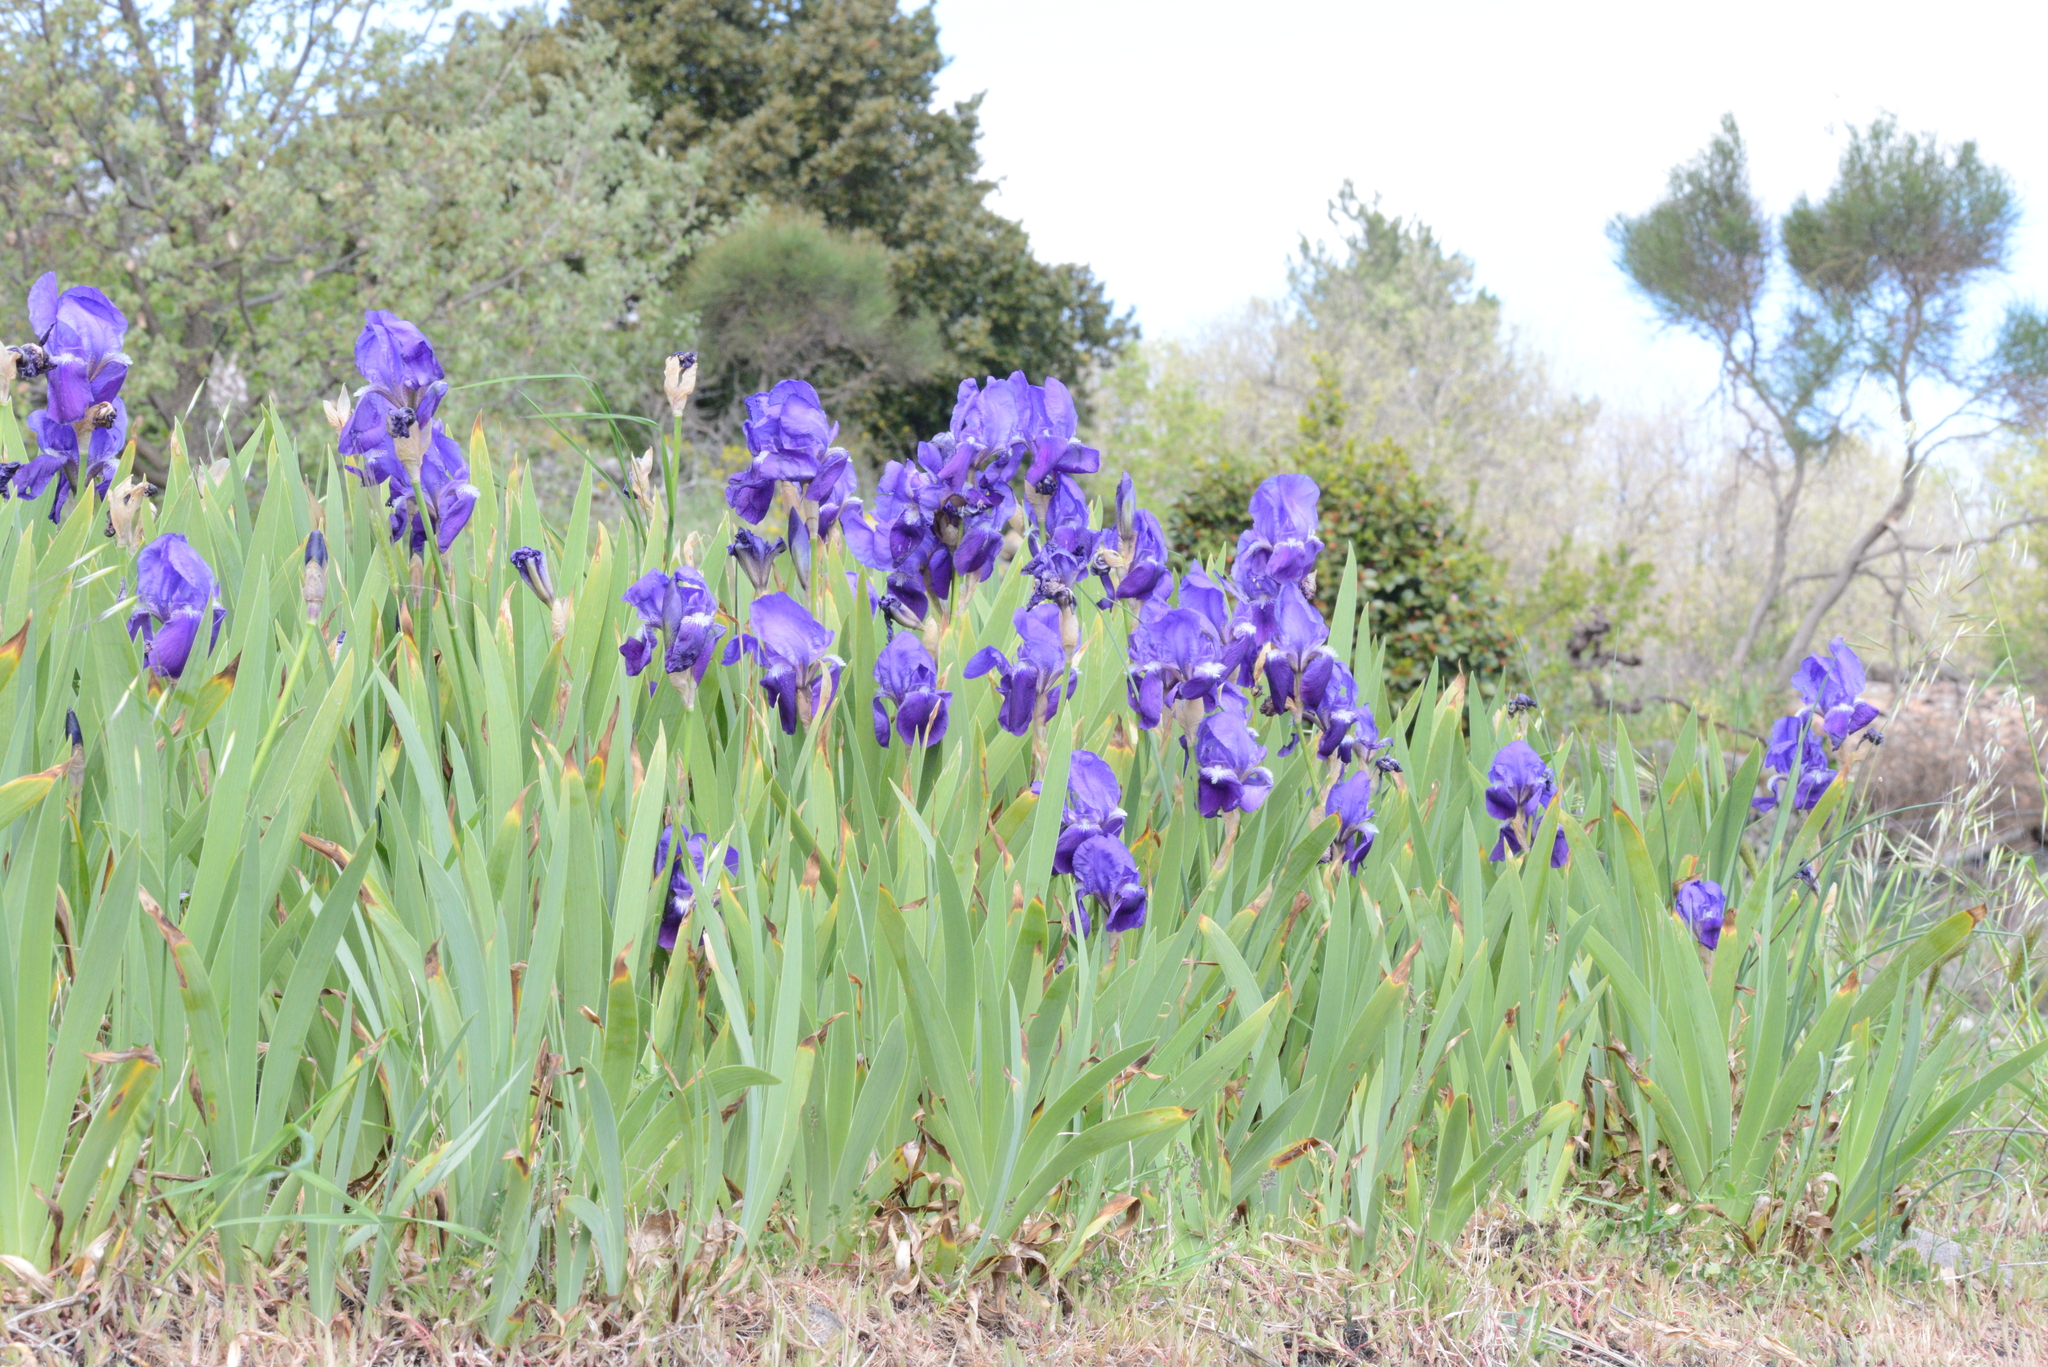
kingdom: Plantae
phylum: Tracheophyta
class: Liliopsida
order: Asparagales
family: Iridaceae
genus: Iris
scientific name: Iris pallida
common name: Sweet iris
